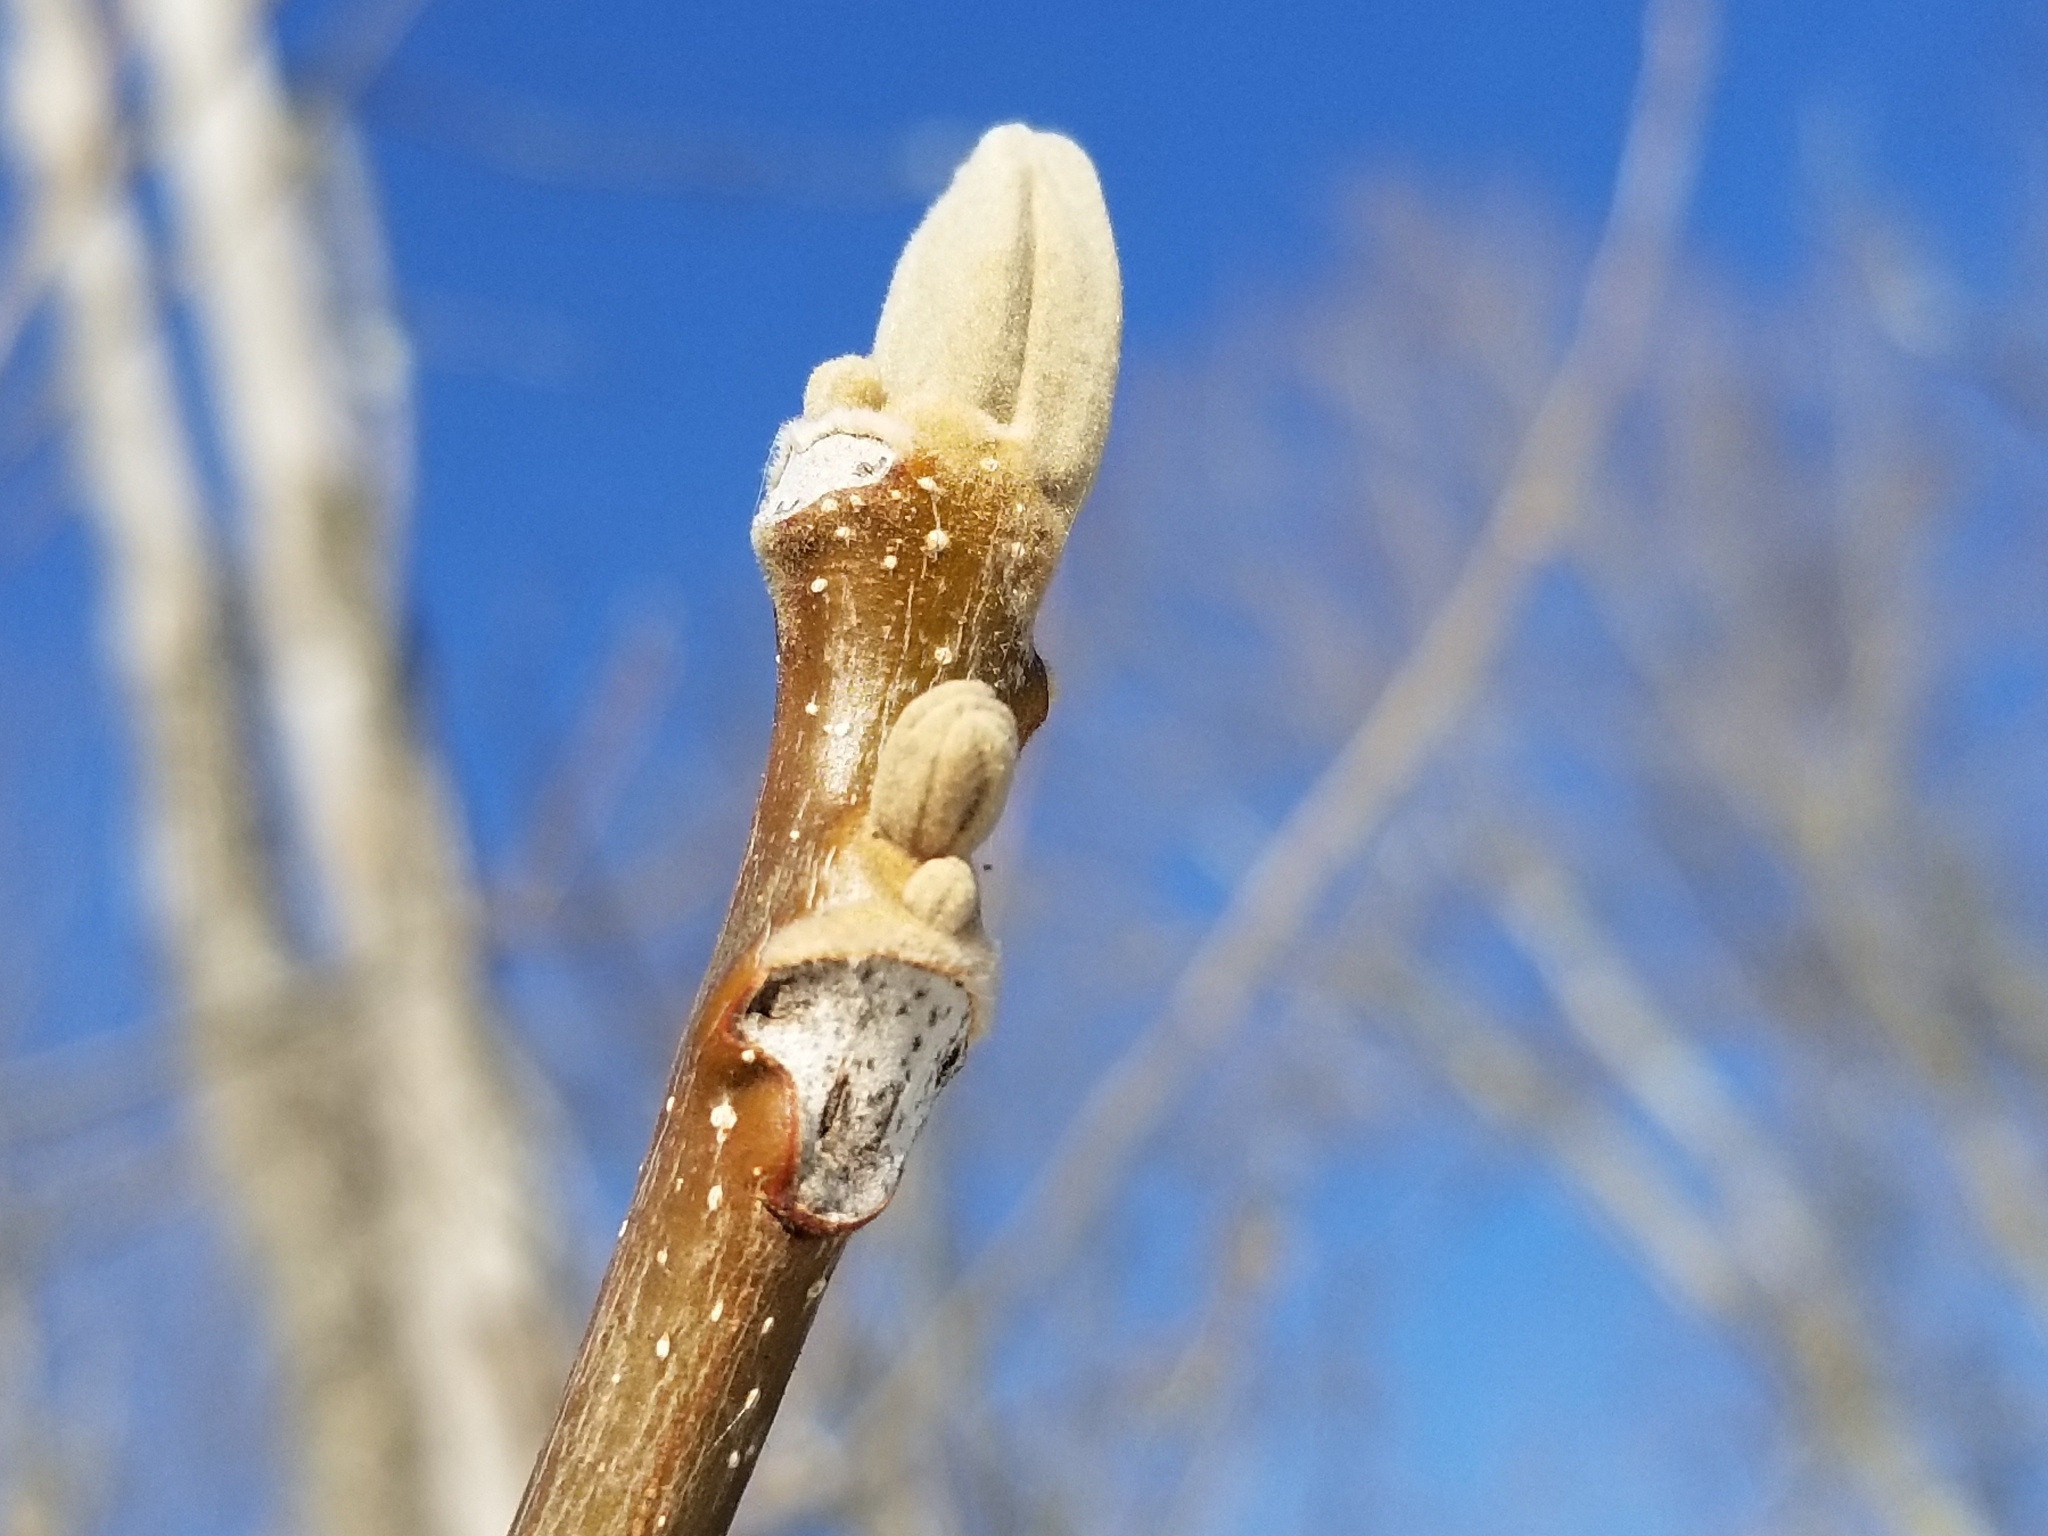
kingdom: Plantae
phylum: Tracheophyta
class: Magnoliopsida
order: Fagales
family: Juglandaceae
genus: Juglans
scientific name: Juglans cinerea
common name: Butternut
